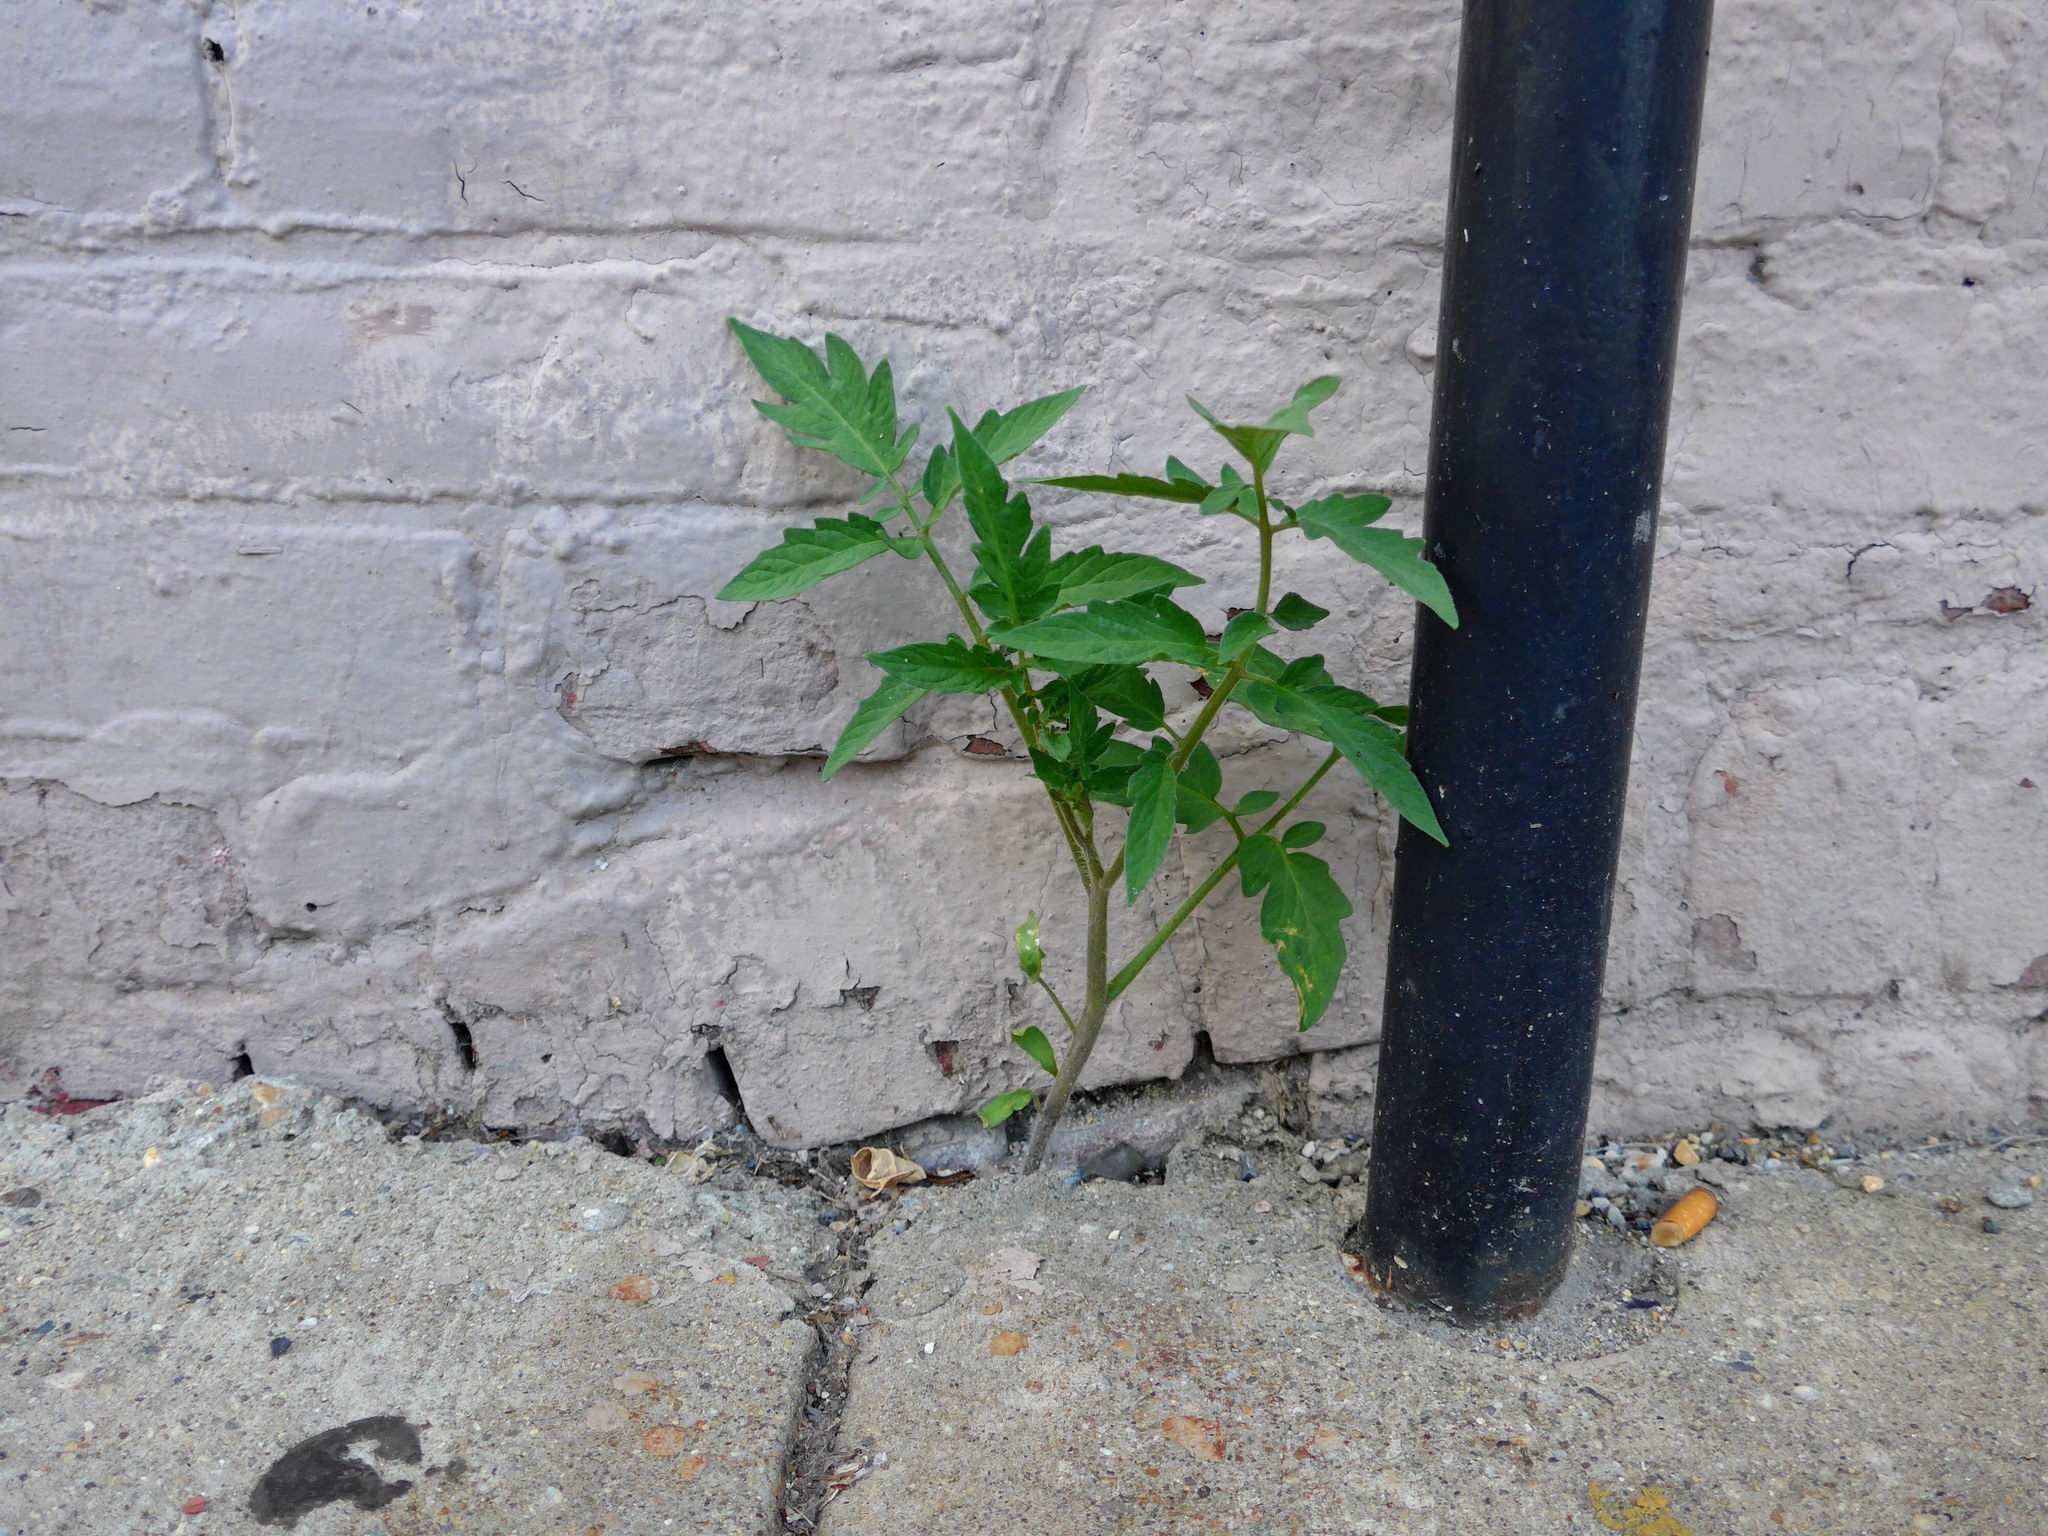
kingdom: Plantae
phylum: Tracheophyta
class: Magnoliopsida
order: Solanales
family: Solanaceae
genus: Solanum
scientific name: Solanum lycopersicum
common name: Garden tomato
